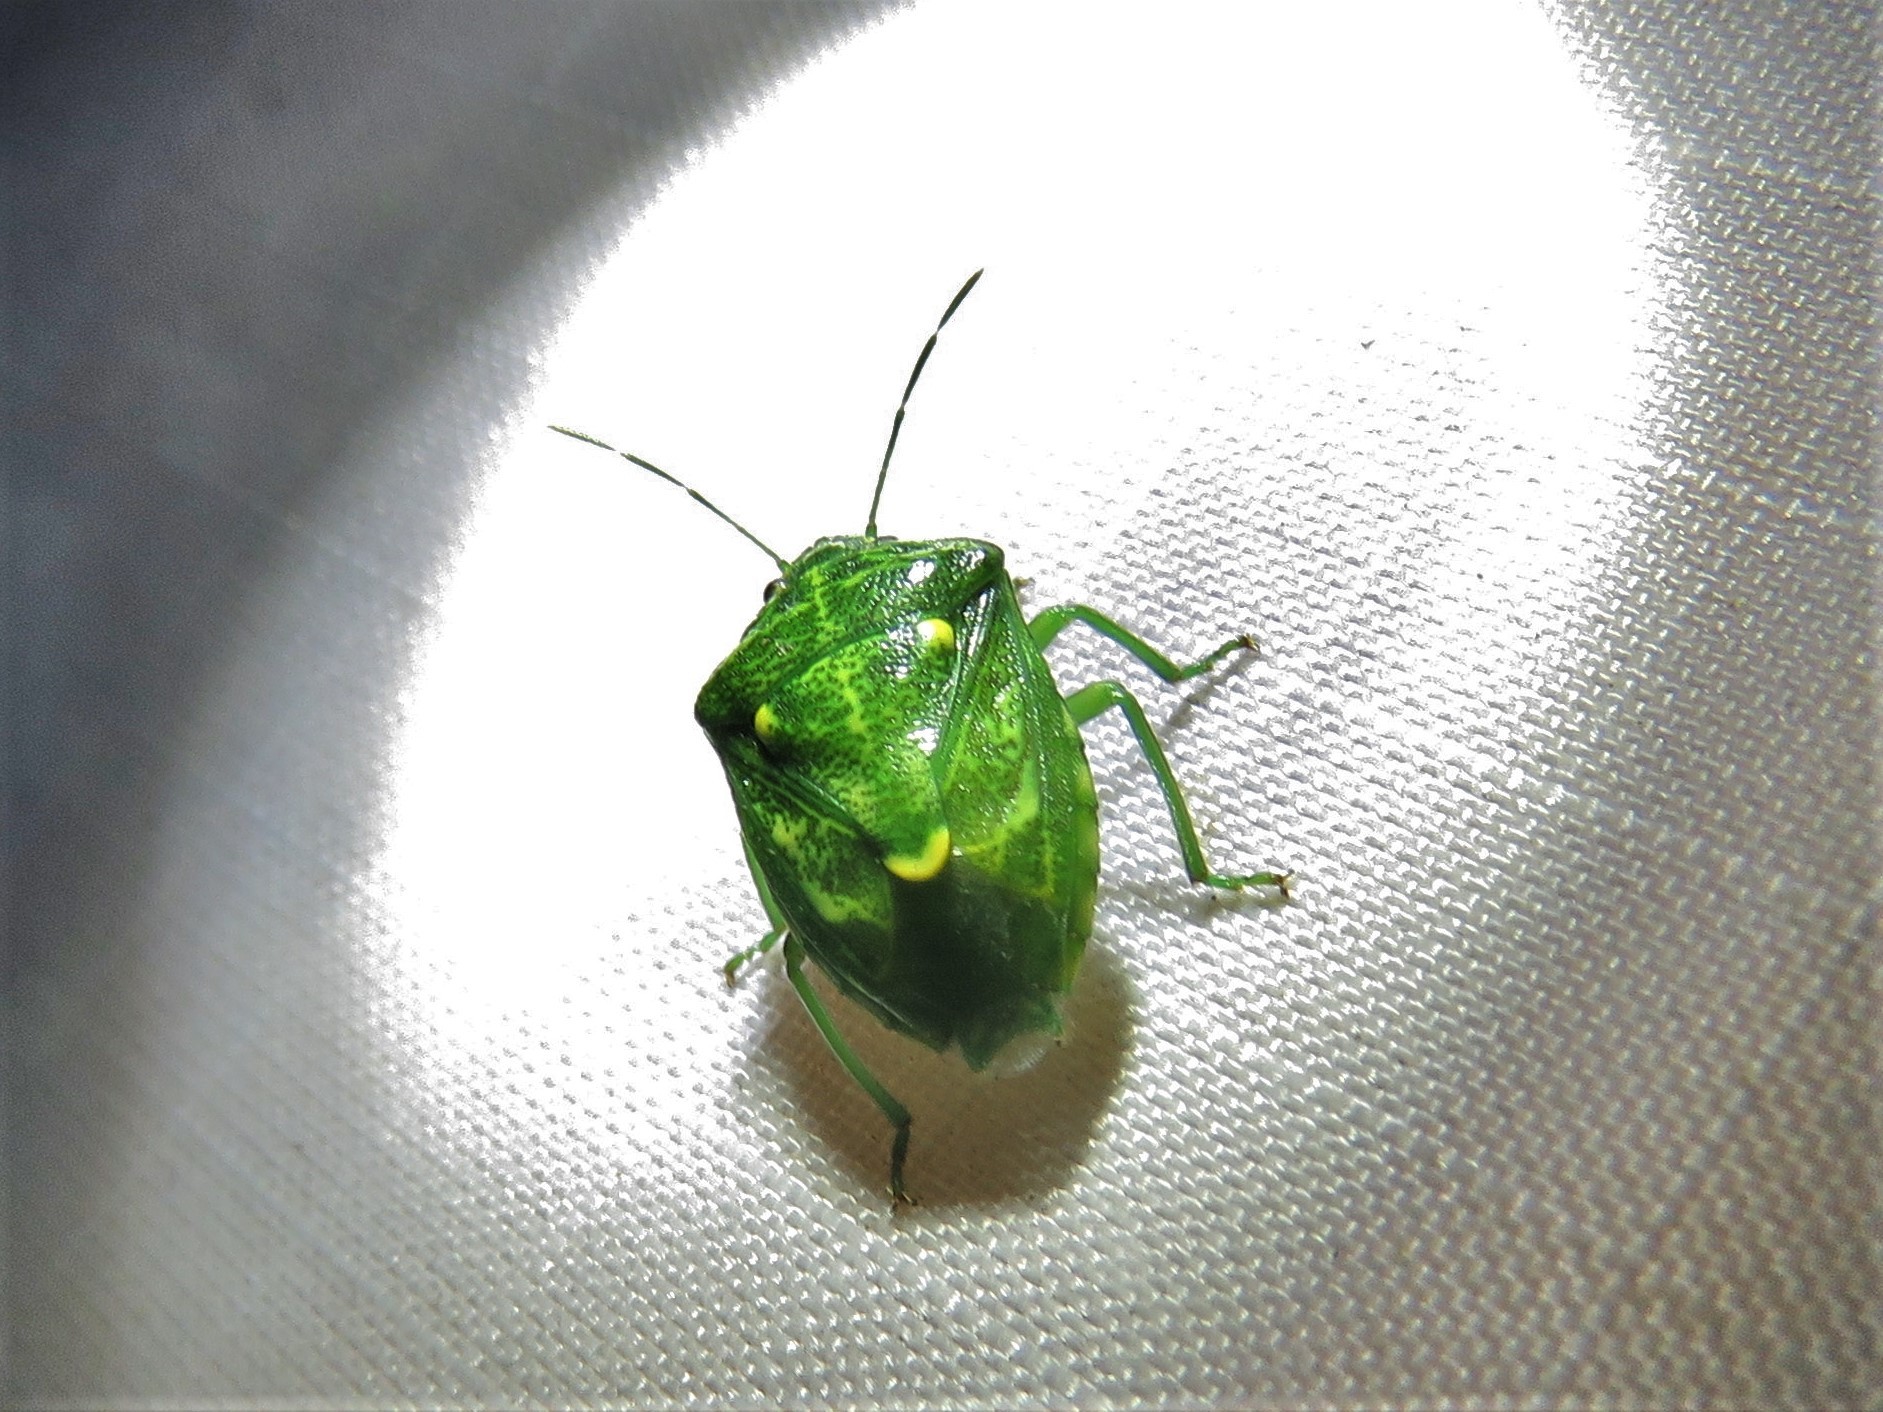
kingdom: Animalia
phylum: Arthropoda
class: Insecta
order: Hemiptera
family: Pentatomidae
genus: Banasa
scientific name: Banasa euchlora
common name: Cedar berry bug
